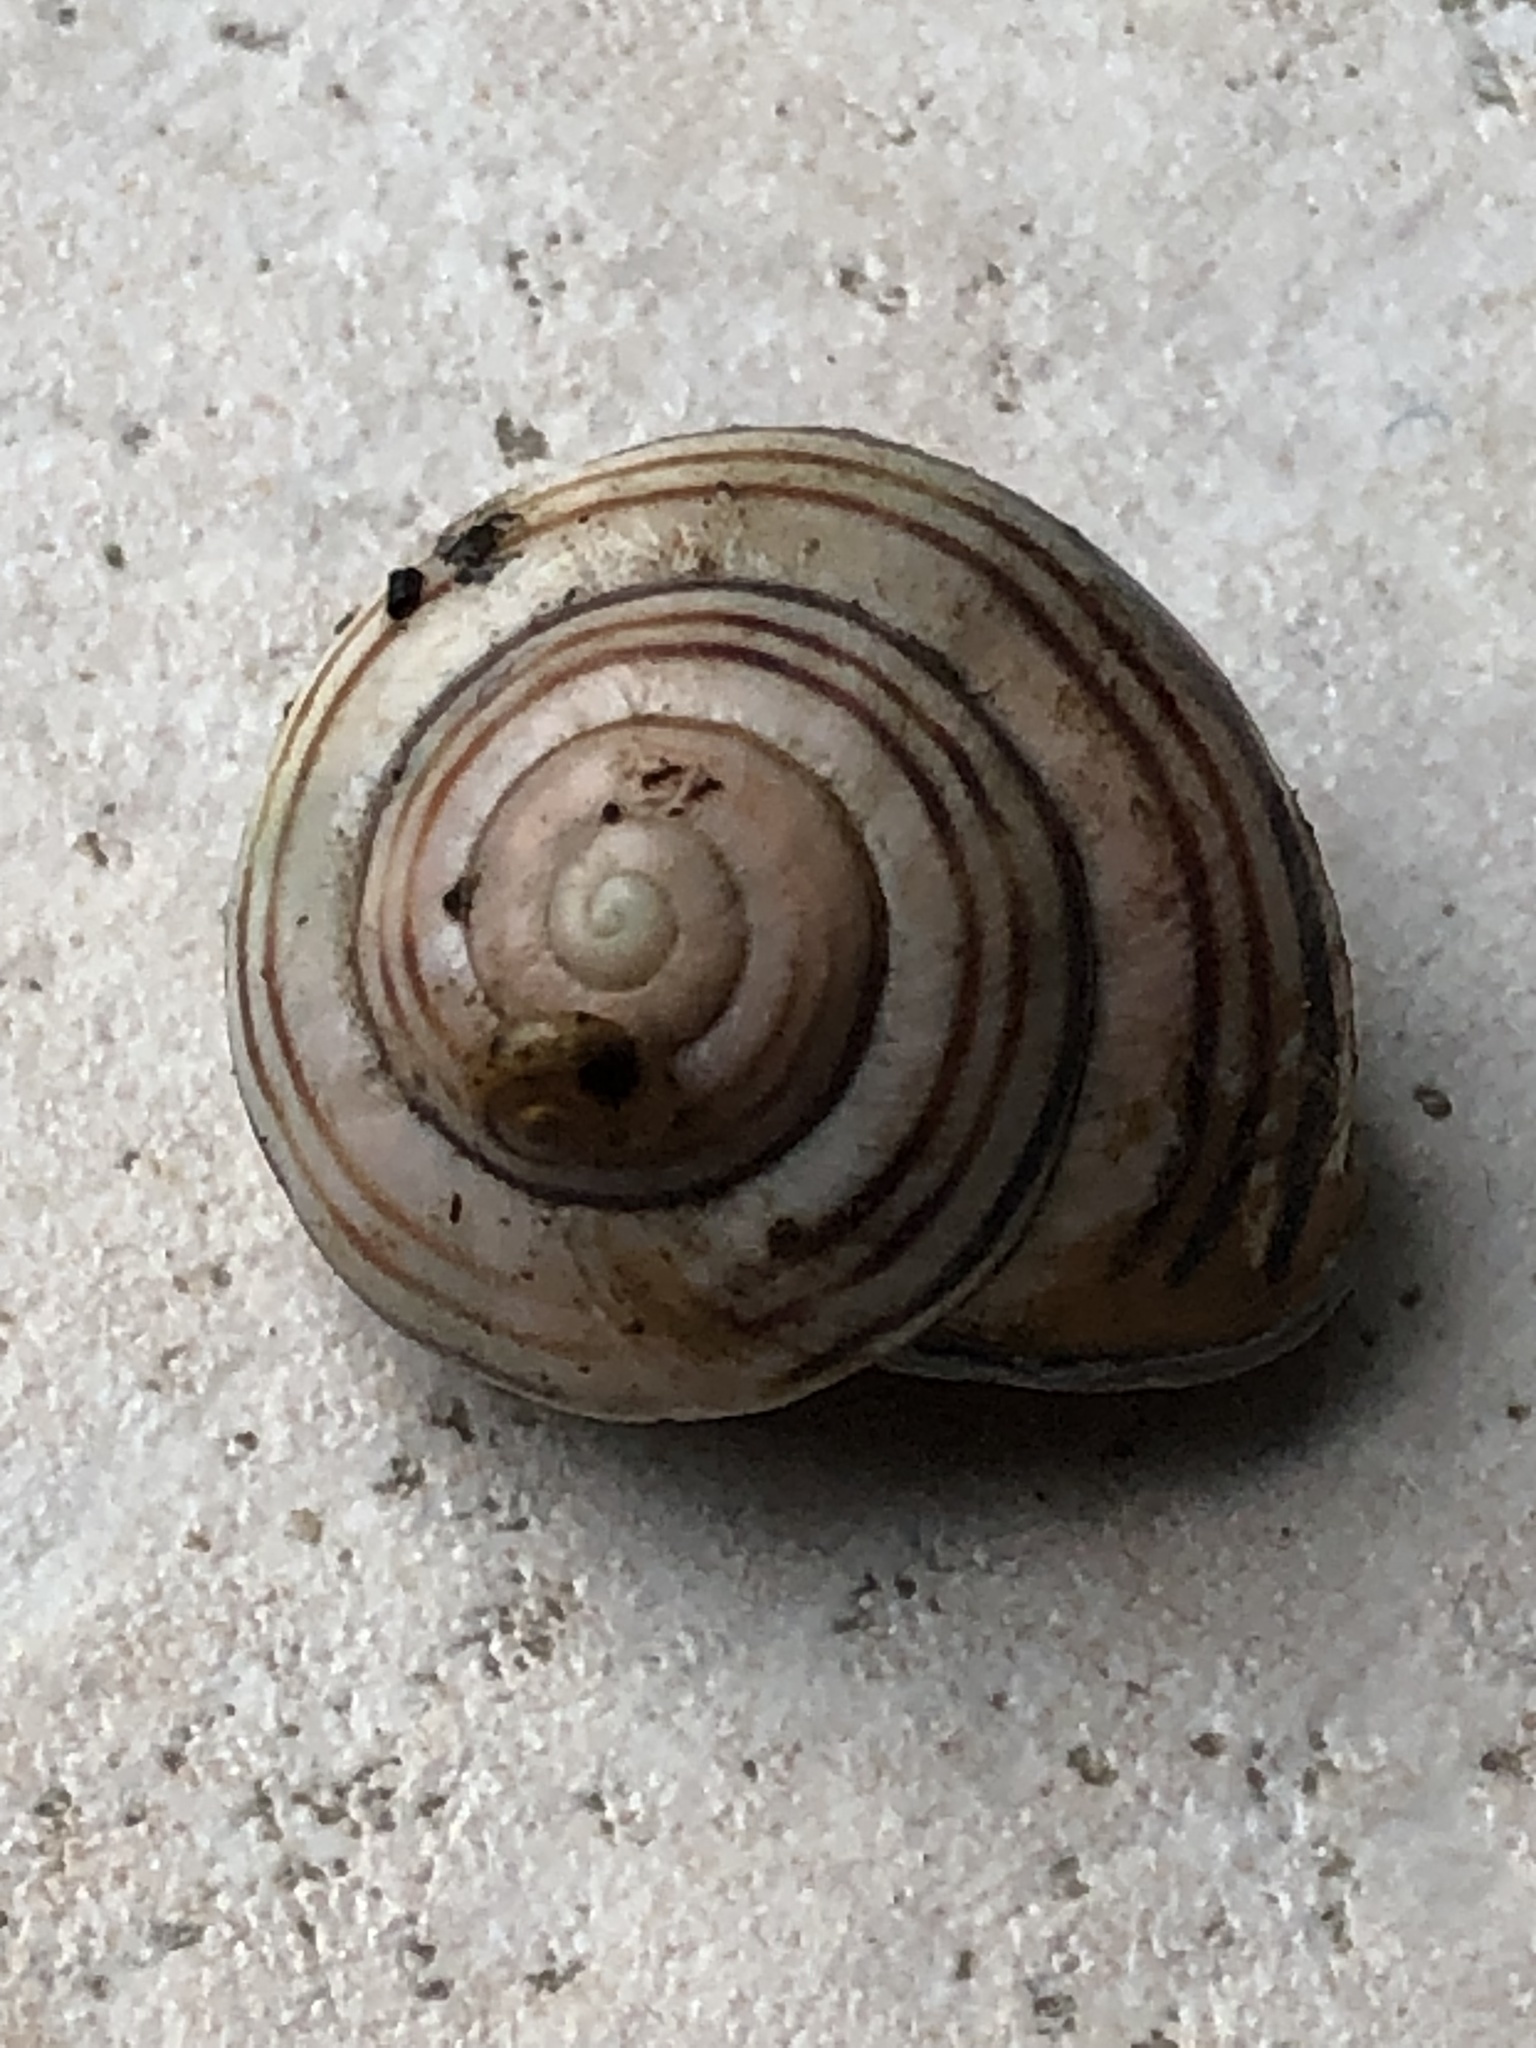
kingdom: Animalia
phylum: Mollusca
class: Gastropoda
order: Stylommatophora
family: Helicidae
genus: Cepaea
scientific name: Cepaea nemoralis
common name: Grovesnail
